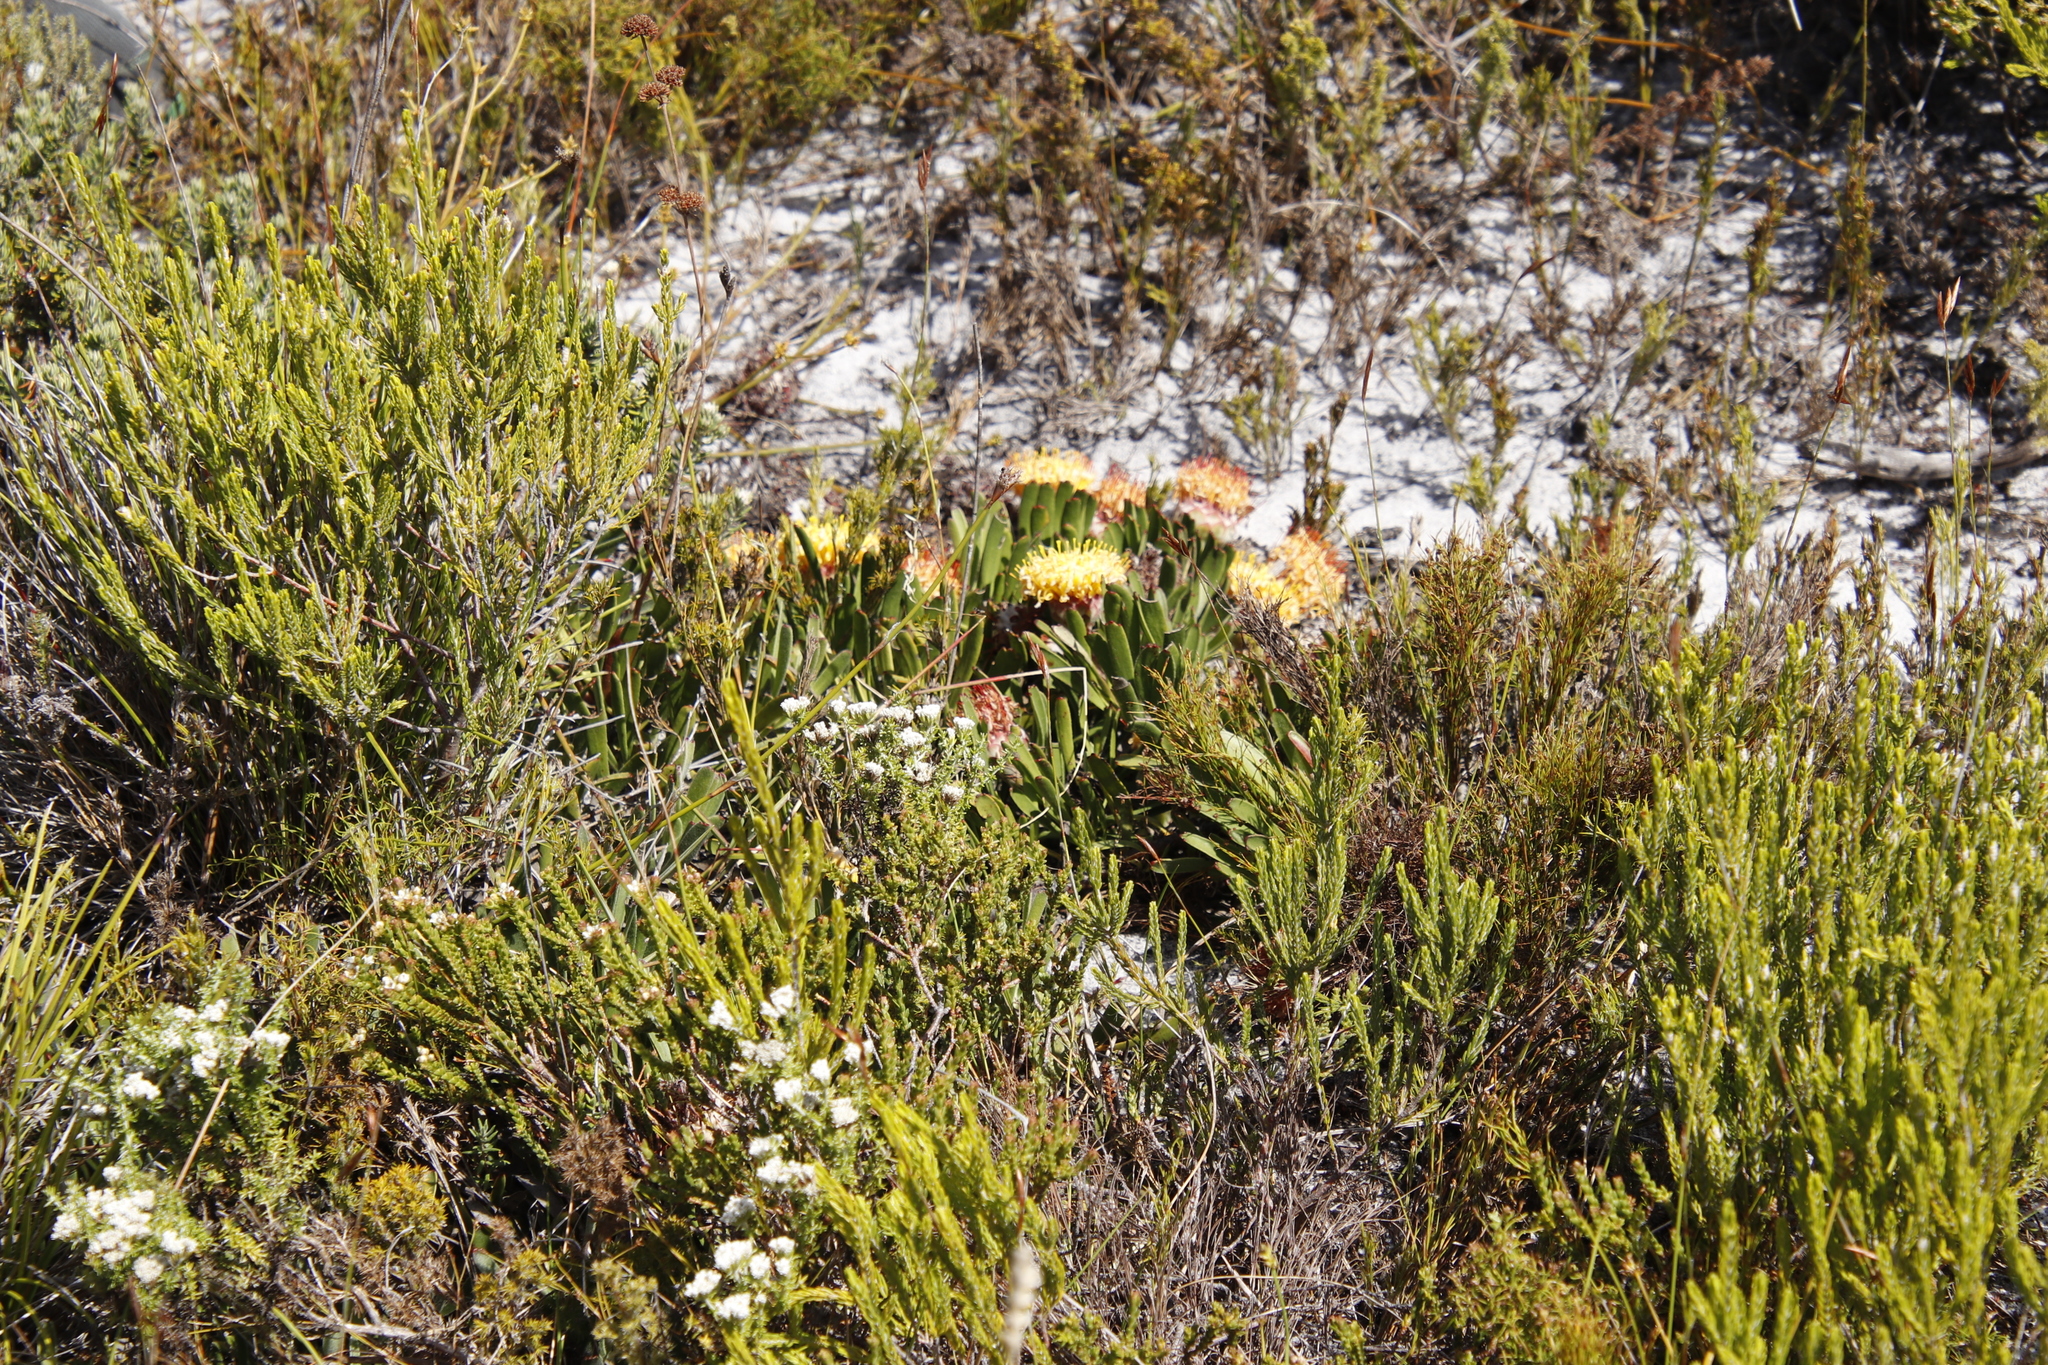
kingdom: Plantae
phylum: Tracheophyta
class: Magnoliopsida
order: Proteales
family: Proteaceae
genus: Leucospermum
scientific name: Leucospermum hypophyllocarpodendron
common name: Snakestem pincushion
